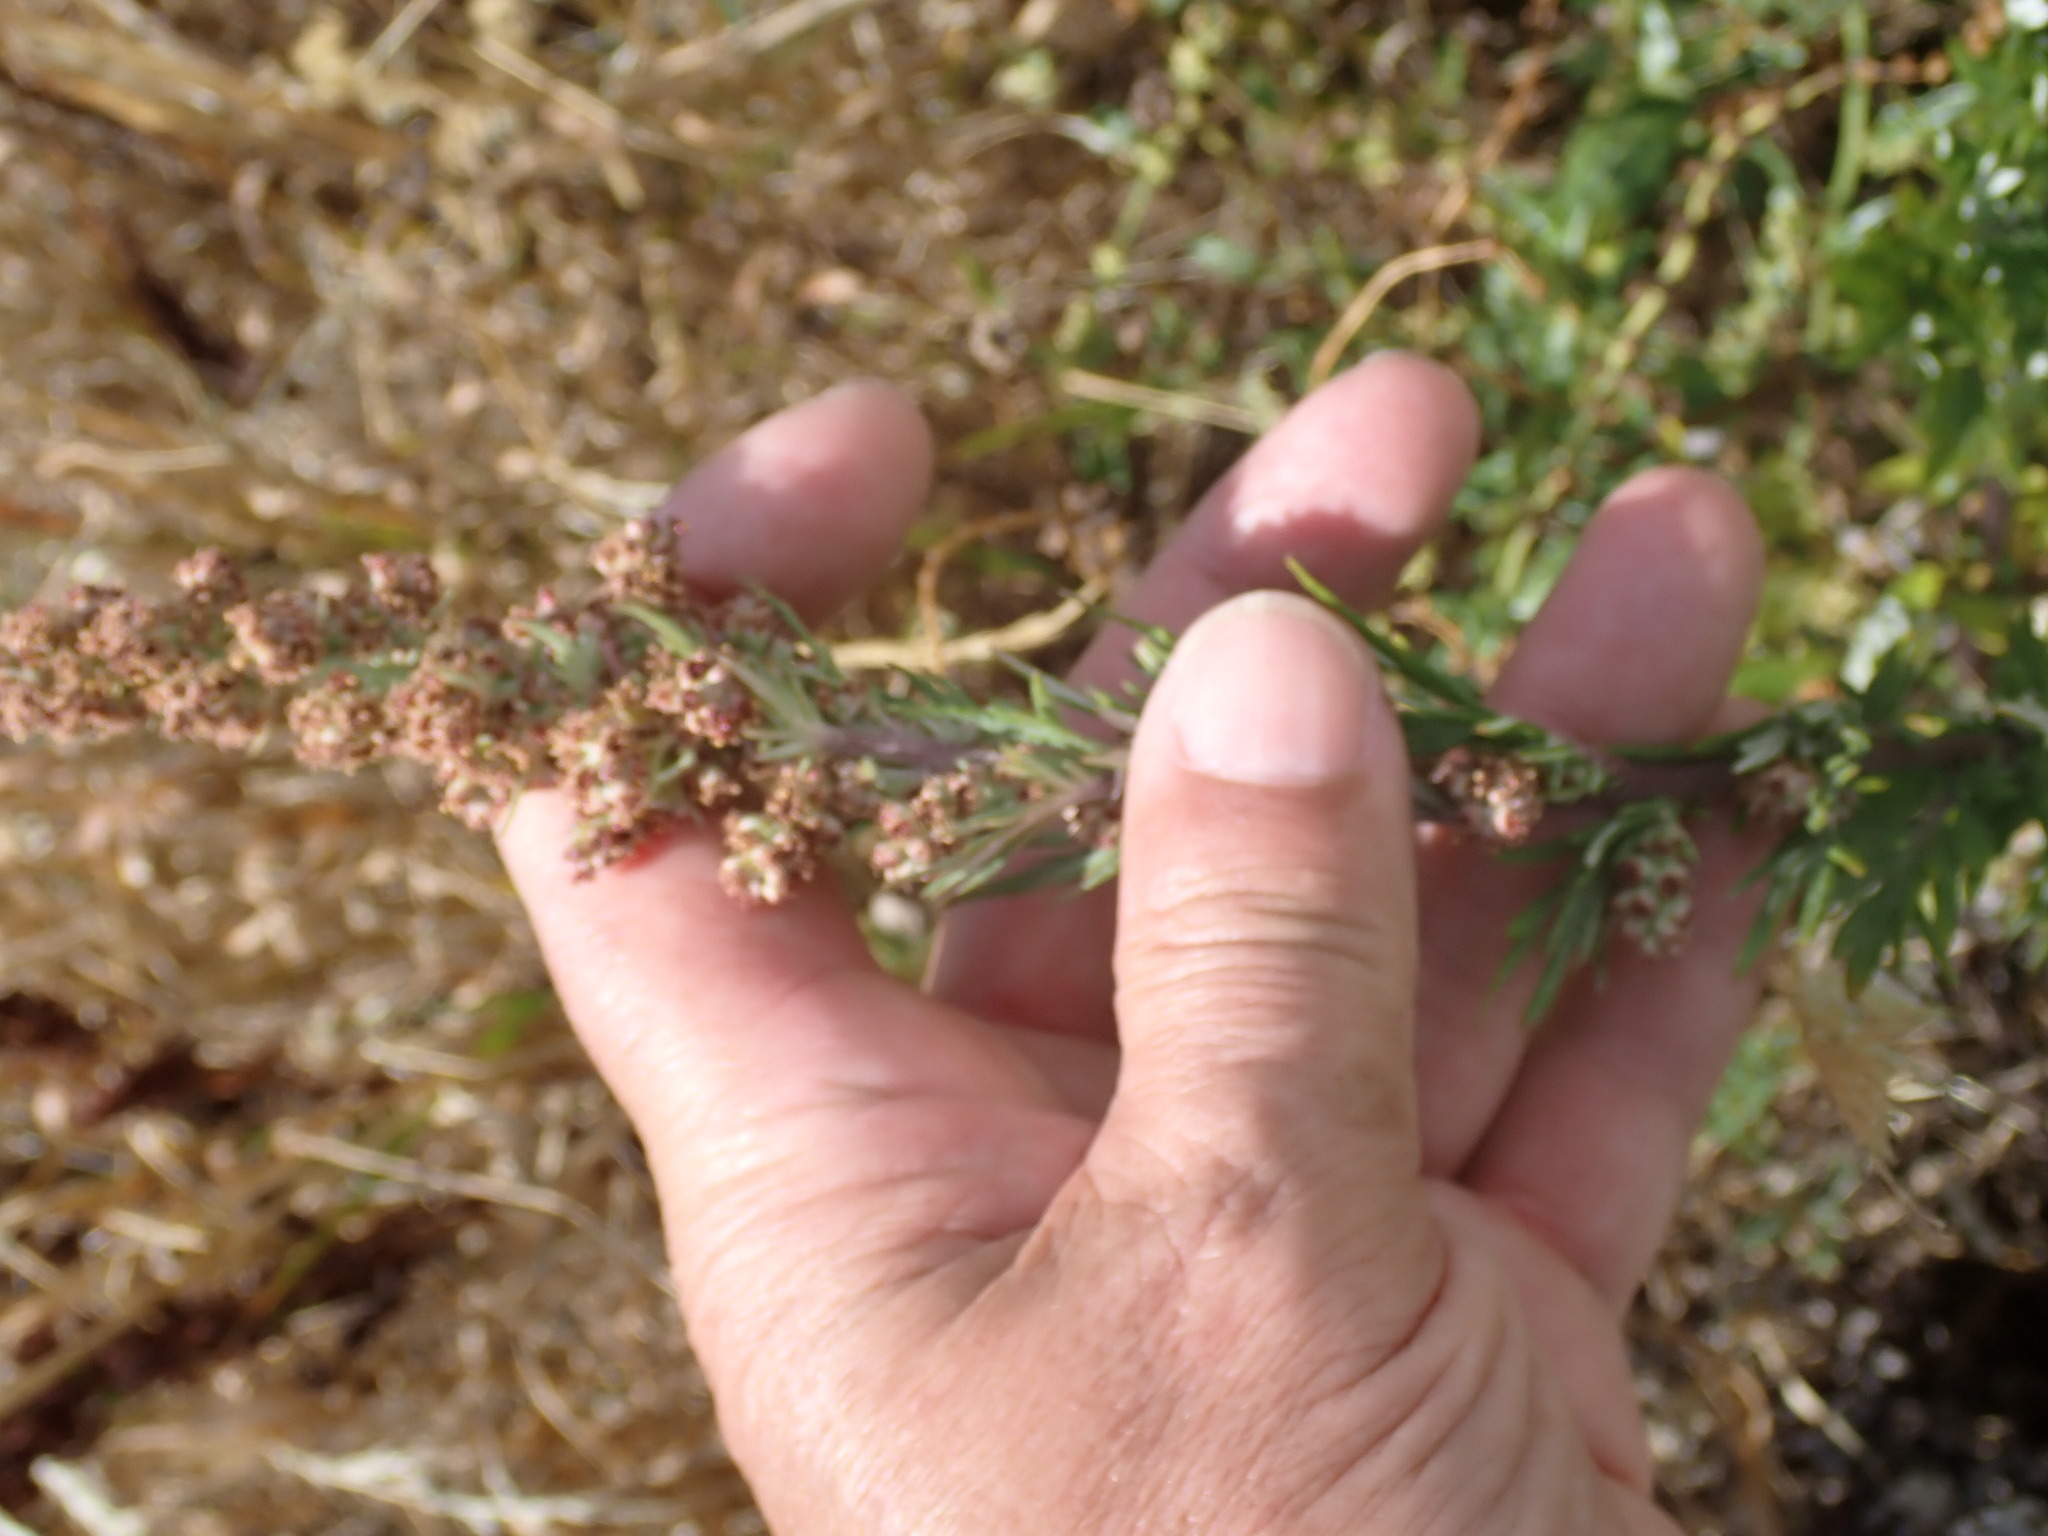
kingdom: Plantae
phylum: Tracheophyta
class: Magnoliopsida
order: Asterales
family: Asteraceae
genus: Artemisia
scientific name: Artemisia vulgaris
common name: Mugwort
